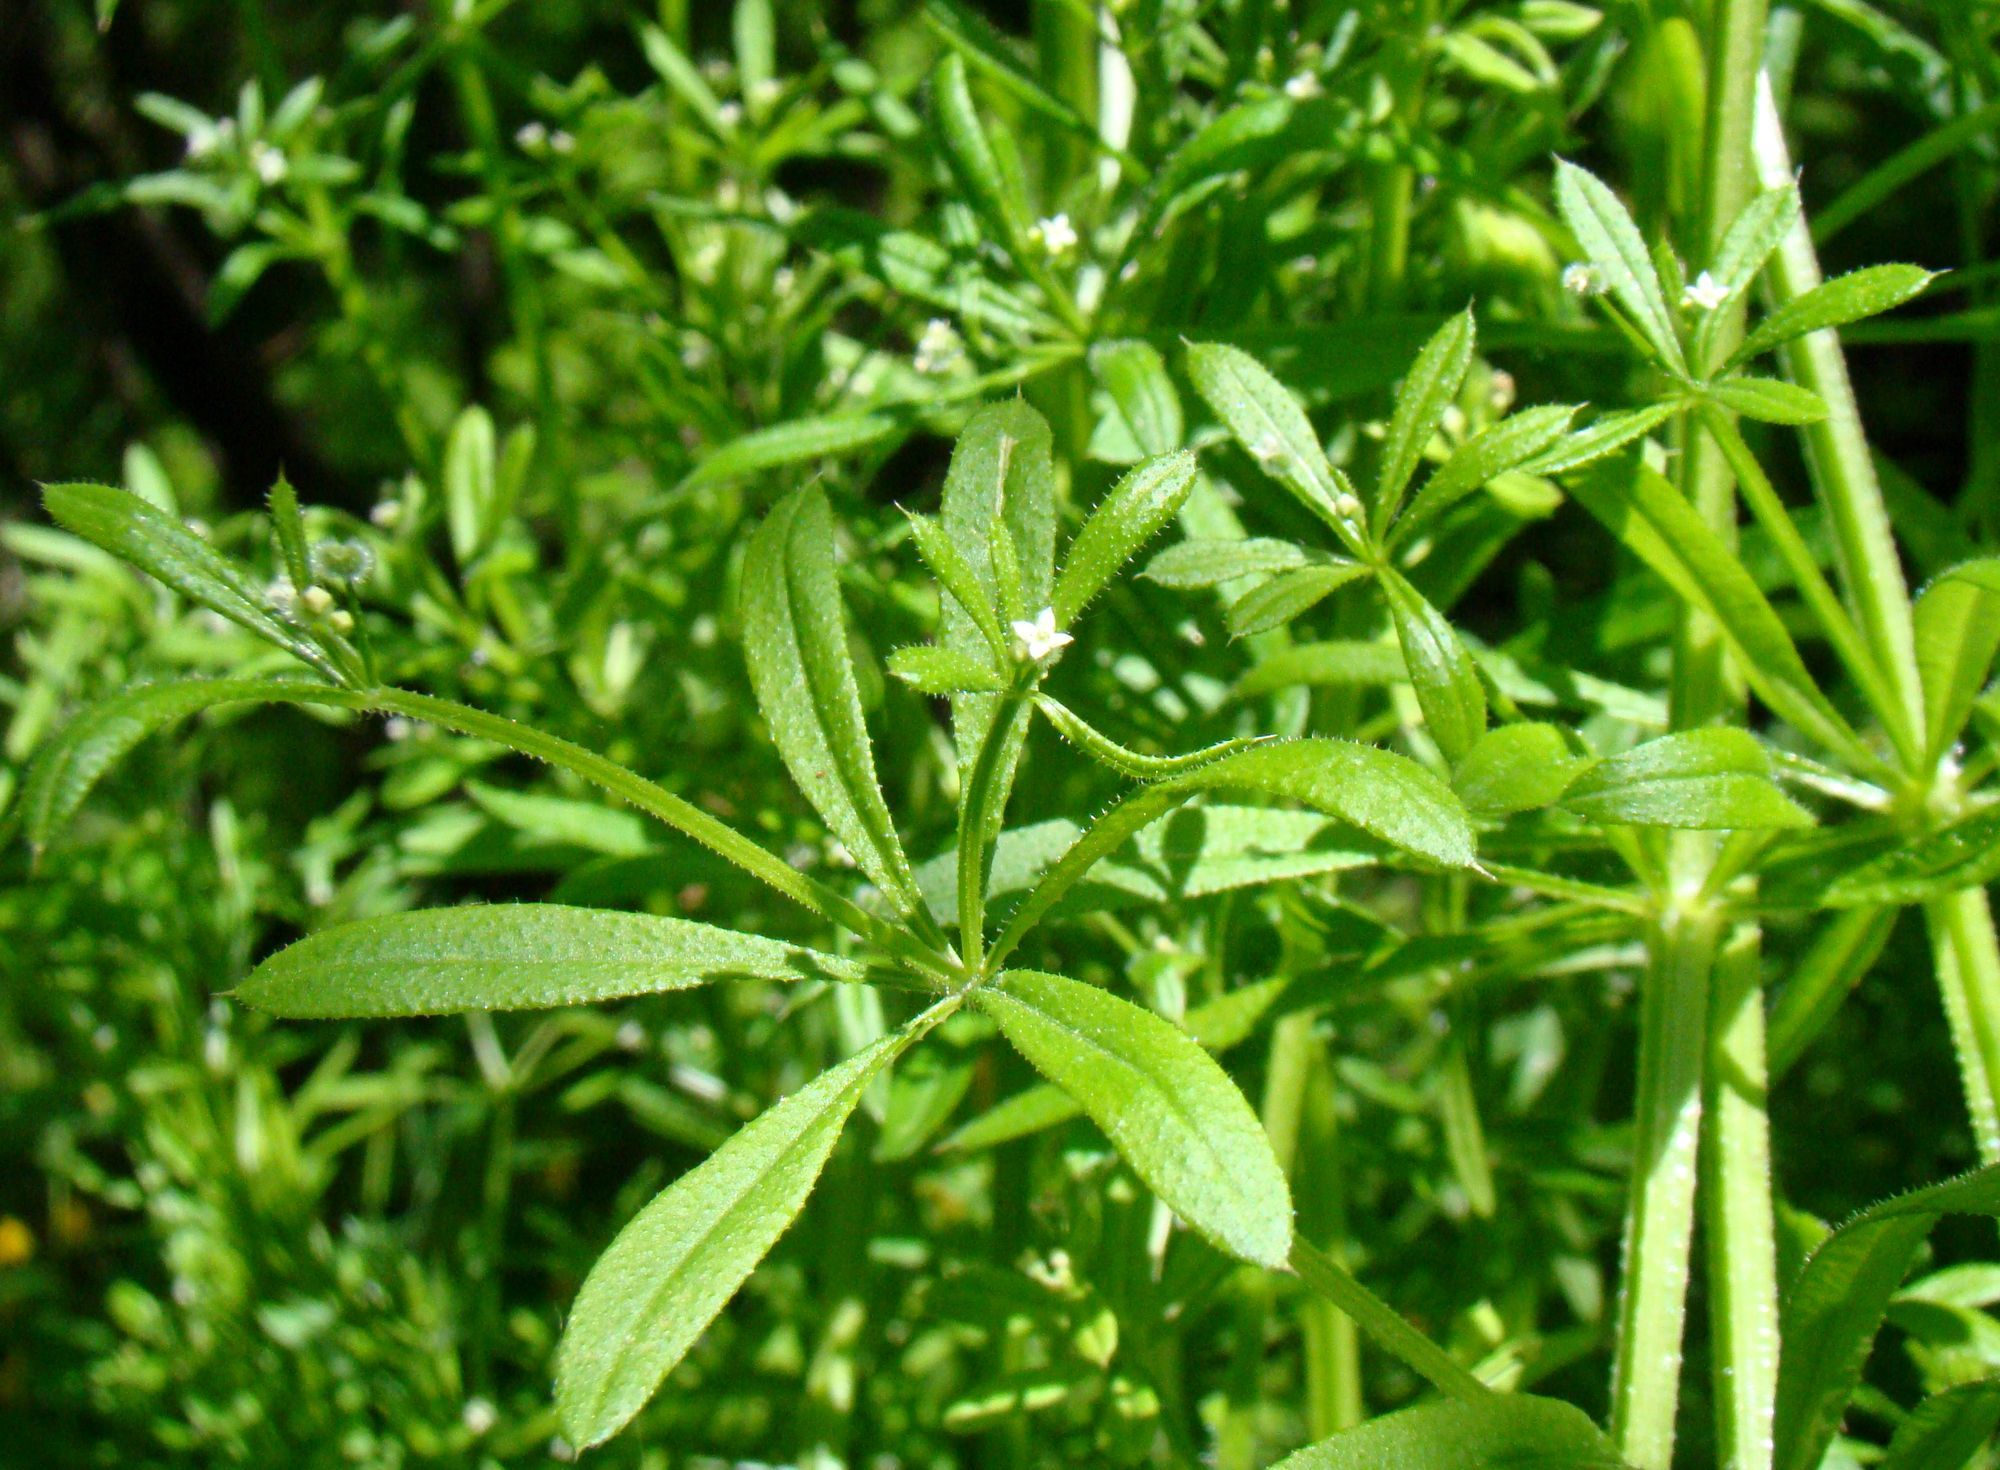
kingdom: Plantae
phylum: Tracheophyta
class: Magnoliopsida
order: Gentianales
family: Rubiaceae
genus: Galium
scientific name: Galium aparine
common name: Cleavers
